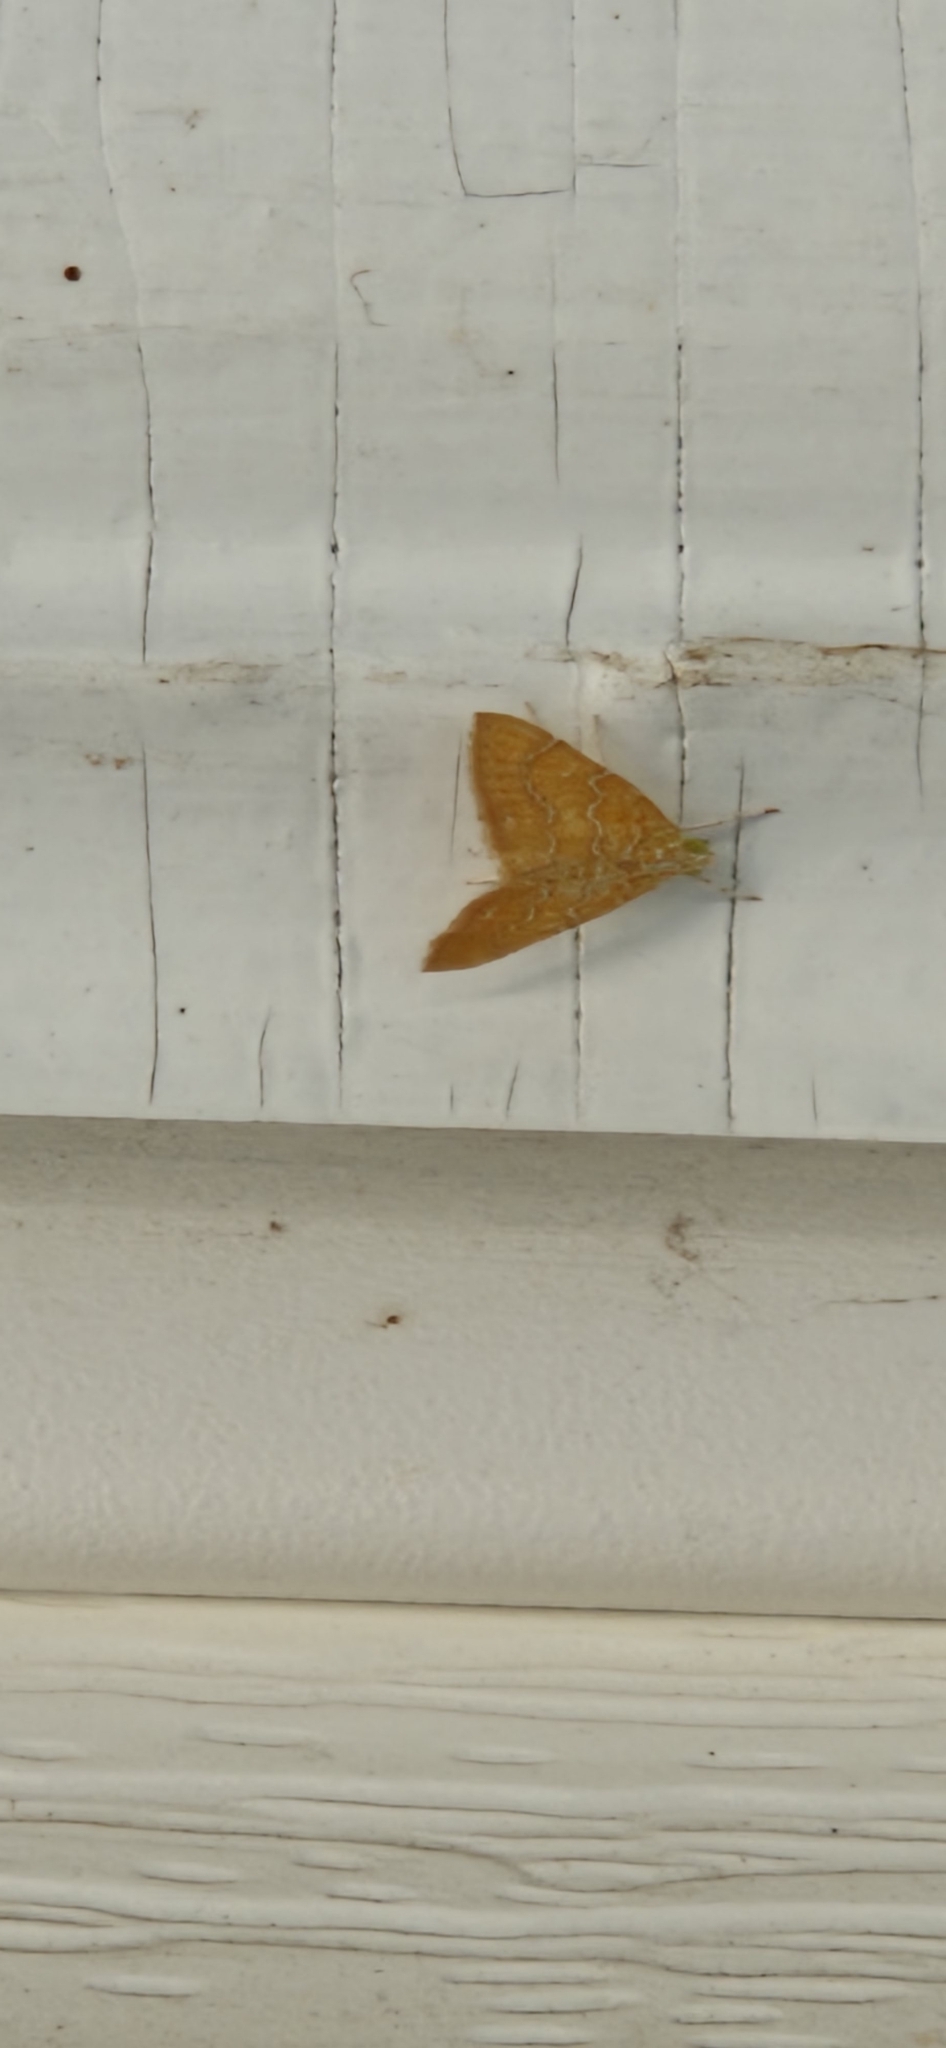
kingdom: Animalia
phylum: Arthropoda
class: Insecta
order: Lepidoptera
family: Crambidae
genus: Glaphyria
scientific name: Glaphyria sesquistrialis
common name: White-roped glaphyria
